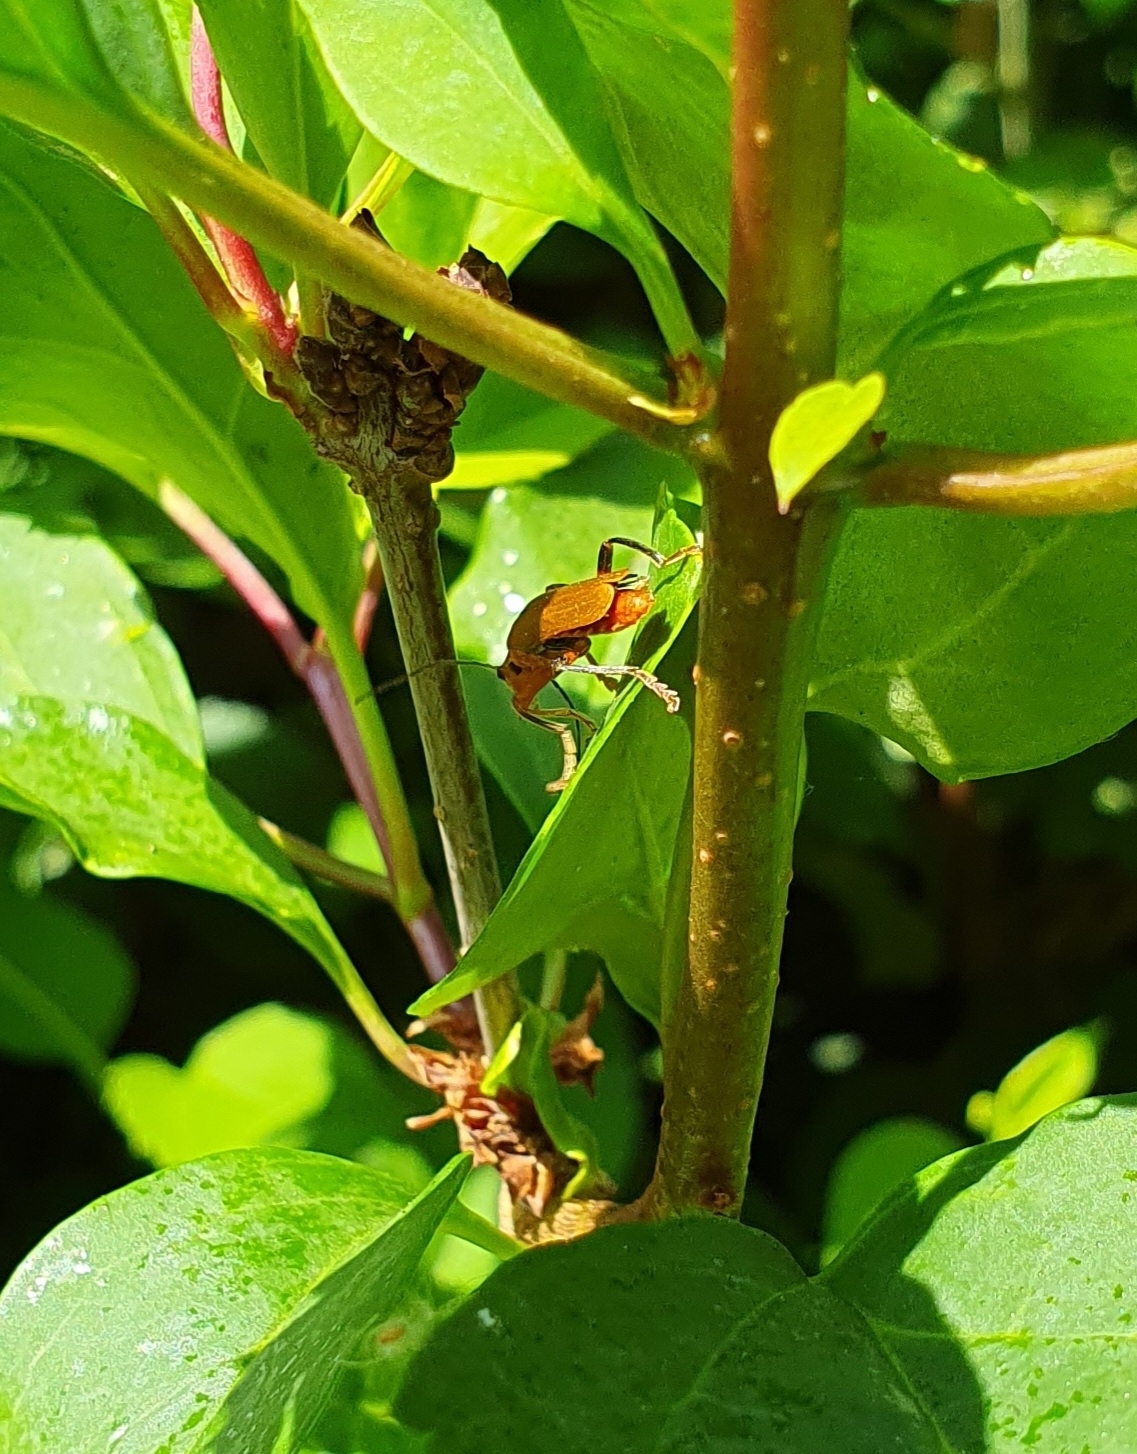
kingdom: Animalia
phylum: Arthropoda
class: Insecta
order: Coleoptera
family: Cantharidae
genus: Cantharis
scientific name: Cantharis livida
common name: Livid soldier beetle
